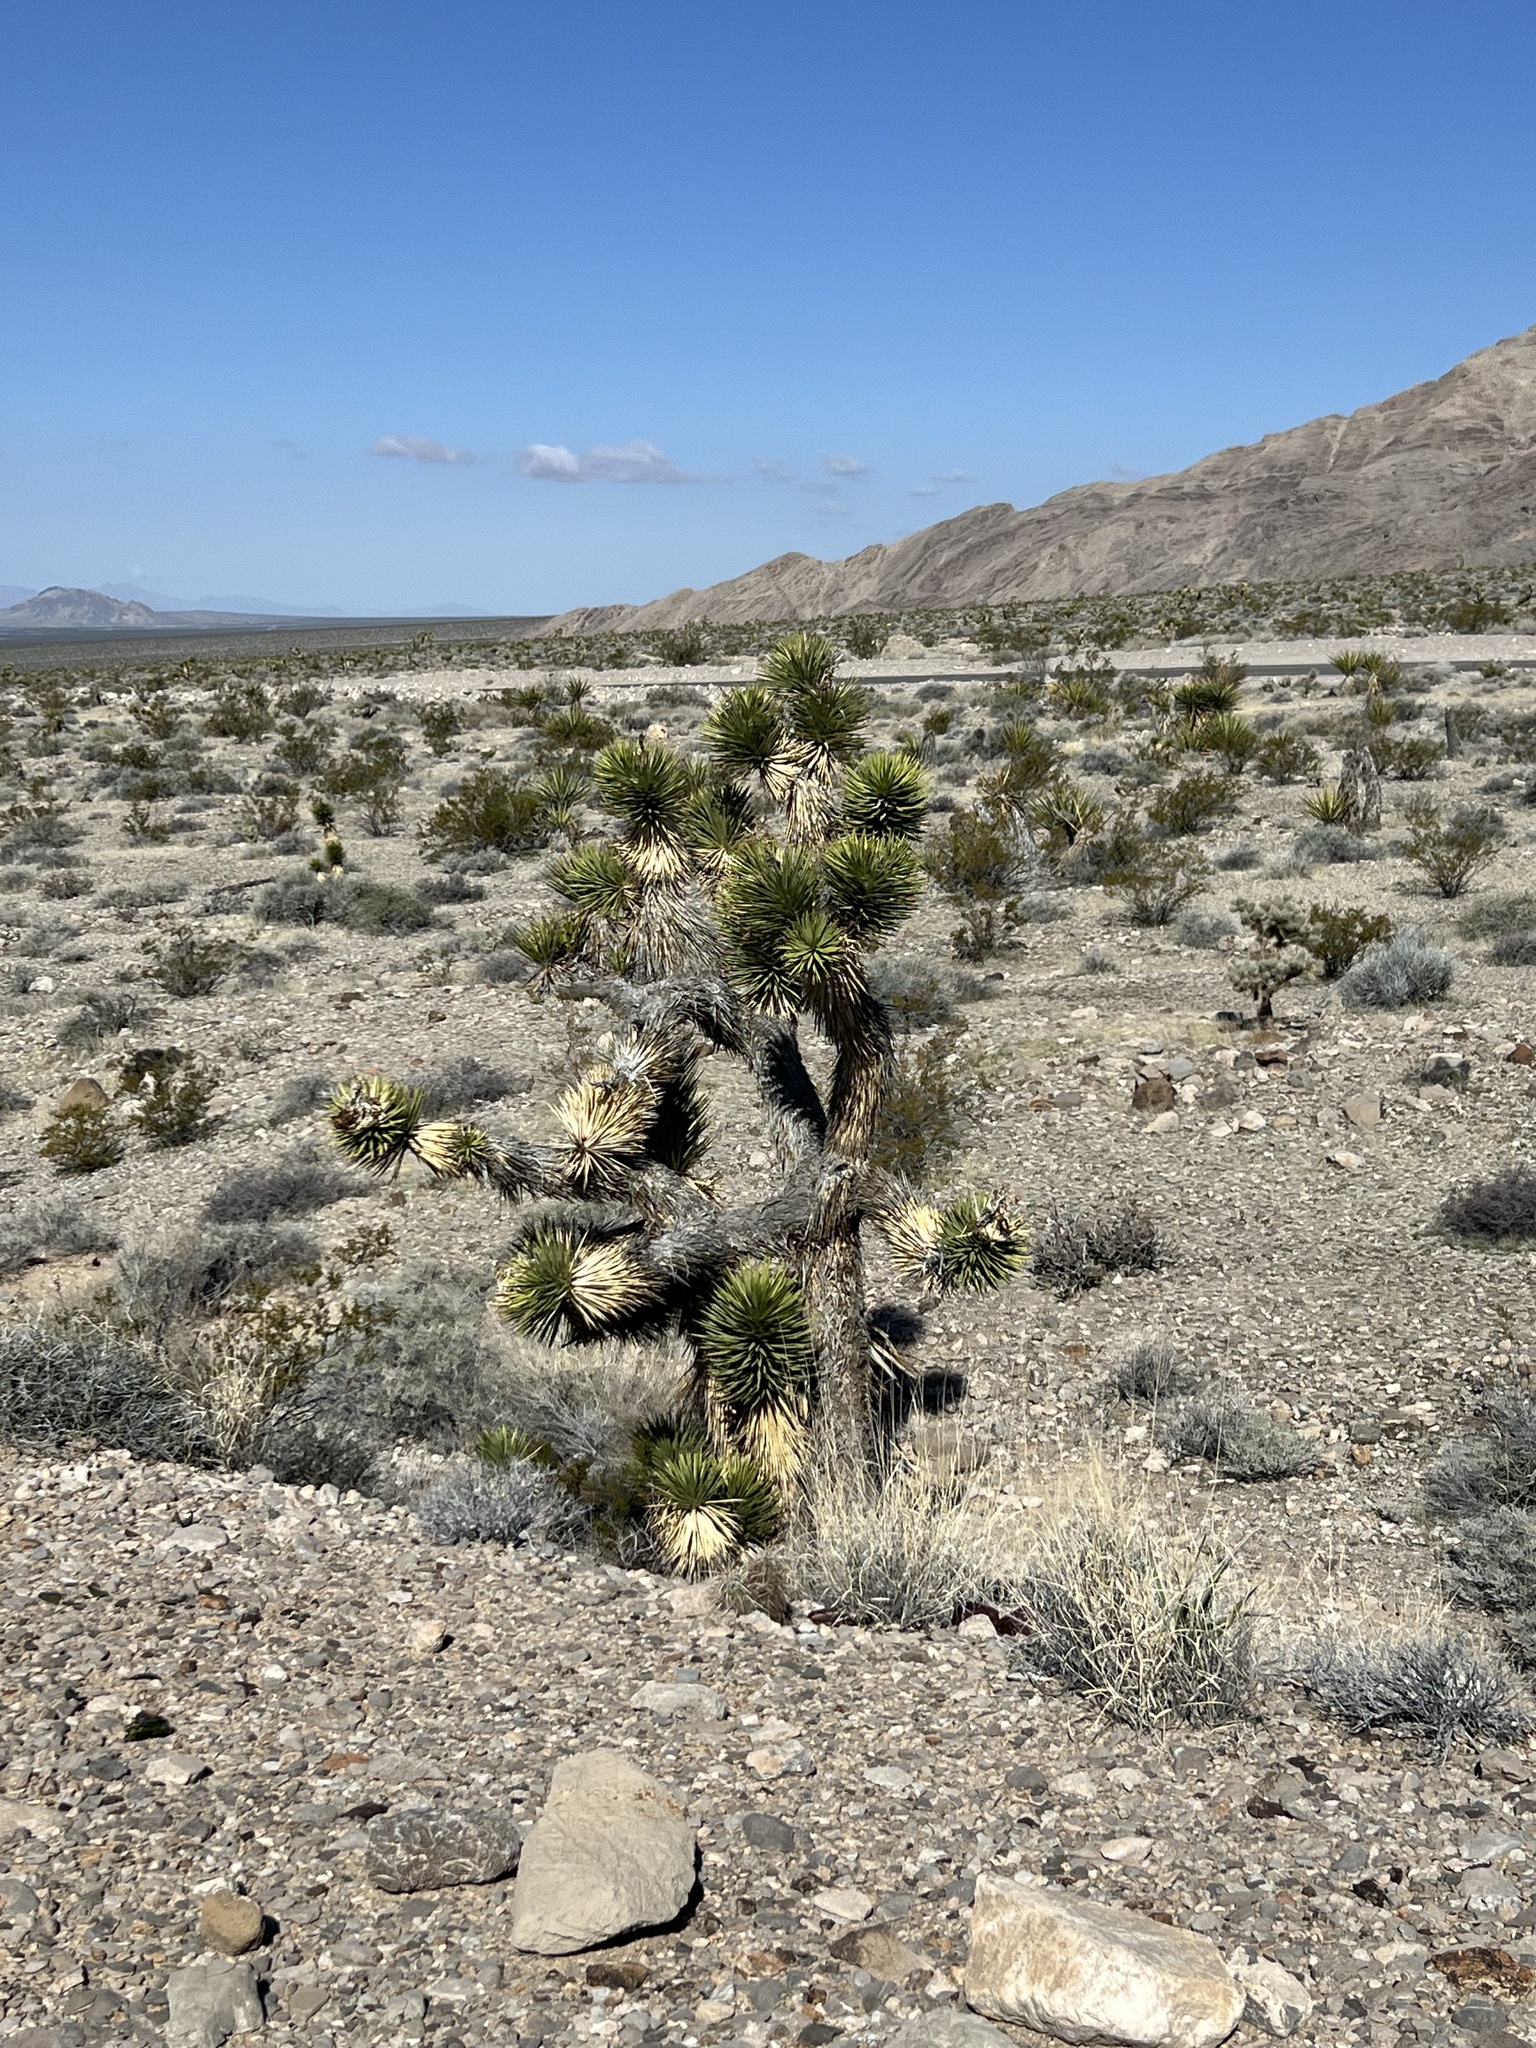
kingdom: Plantae
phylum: Tracheophyta
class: Liliopsida
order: Asparagales
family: Asparagaceae
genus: Yucca
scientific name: Yucca brevifolia
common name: Joshua tree
